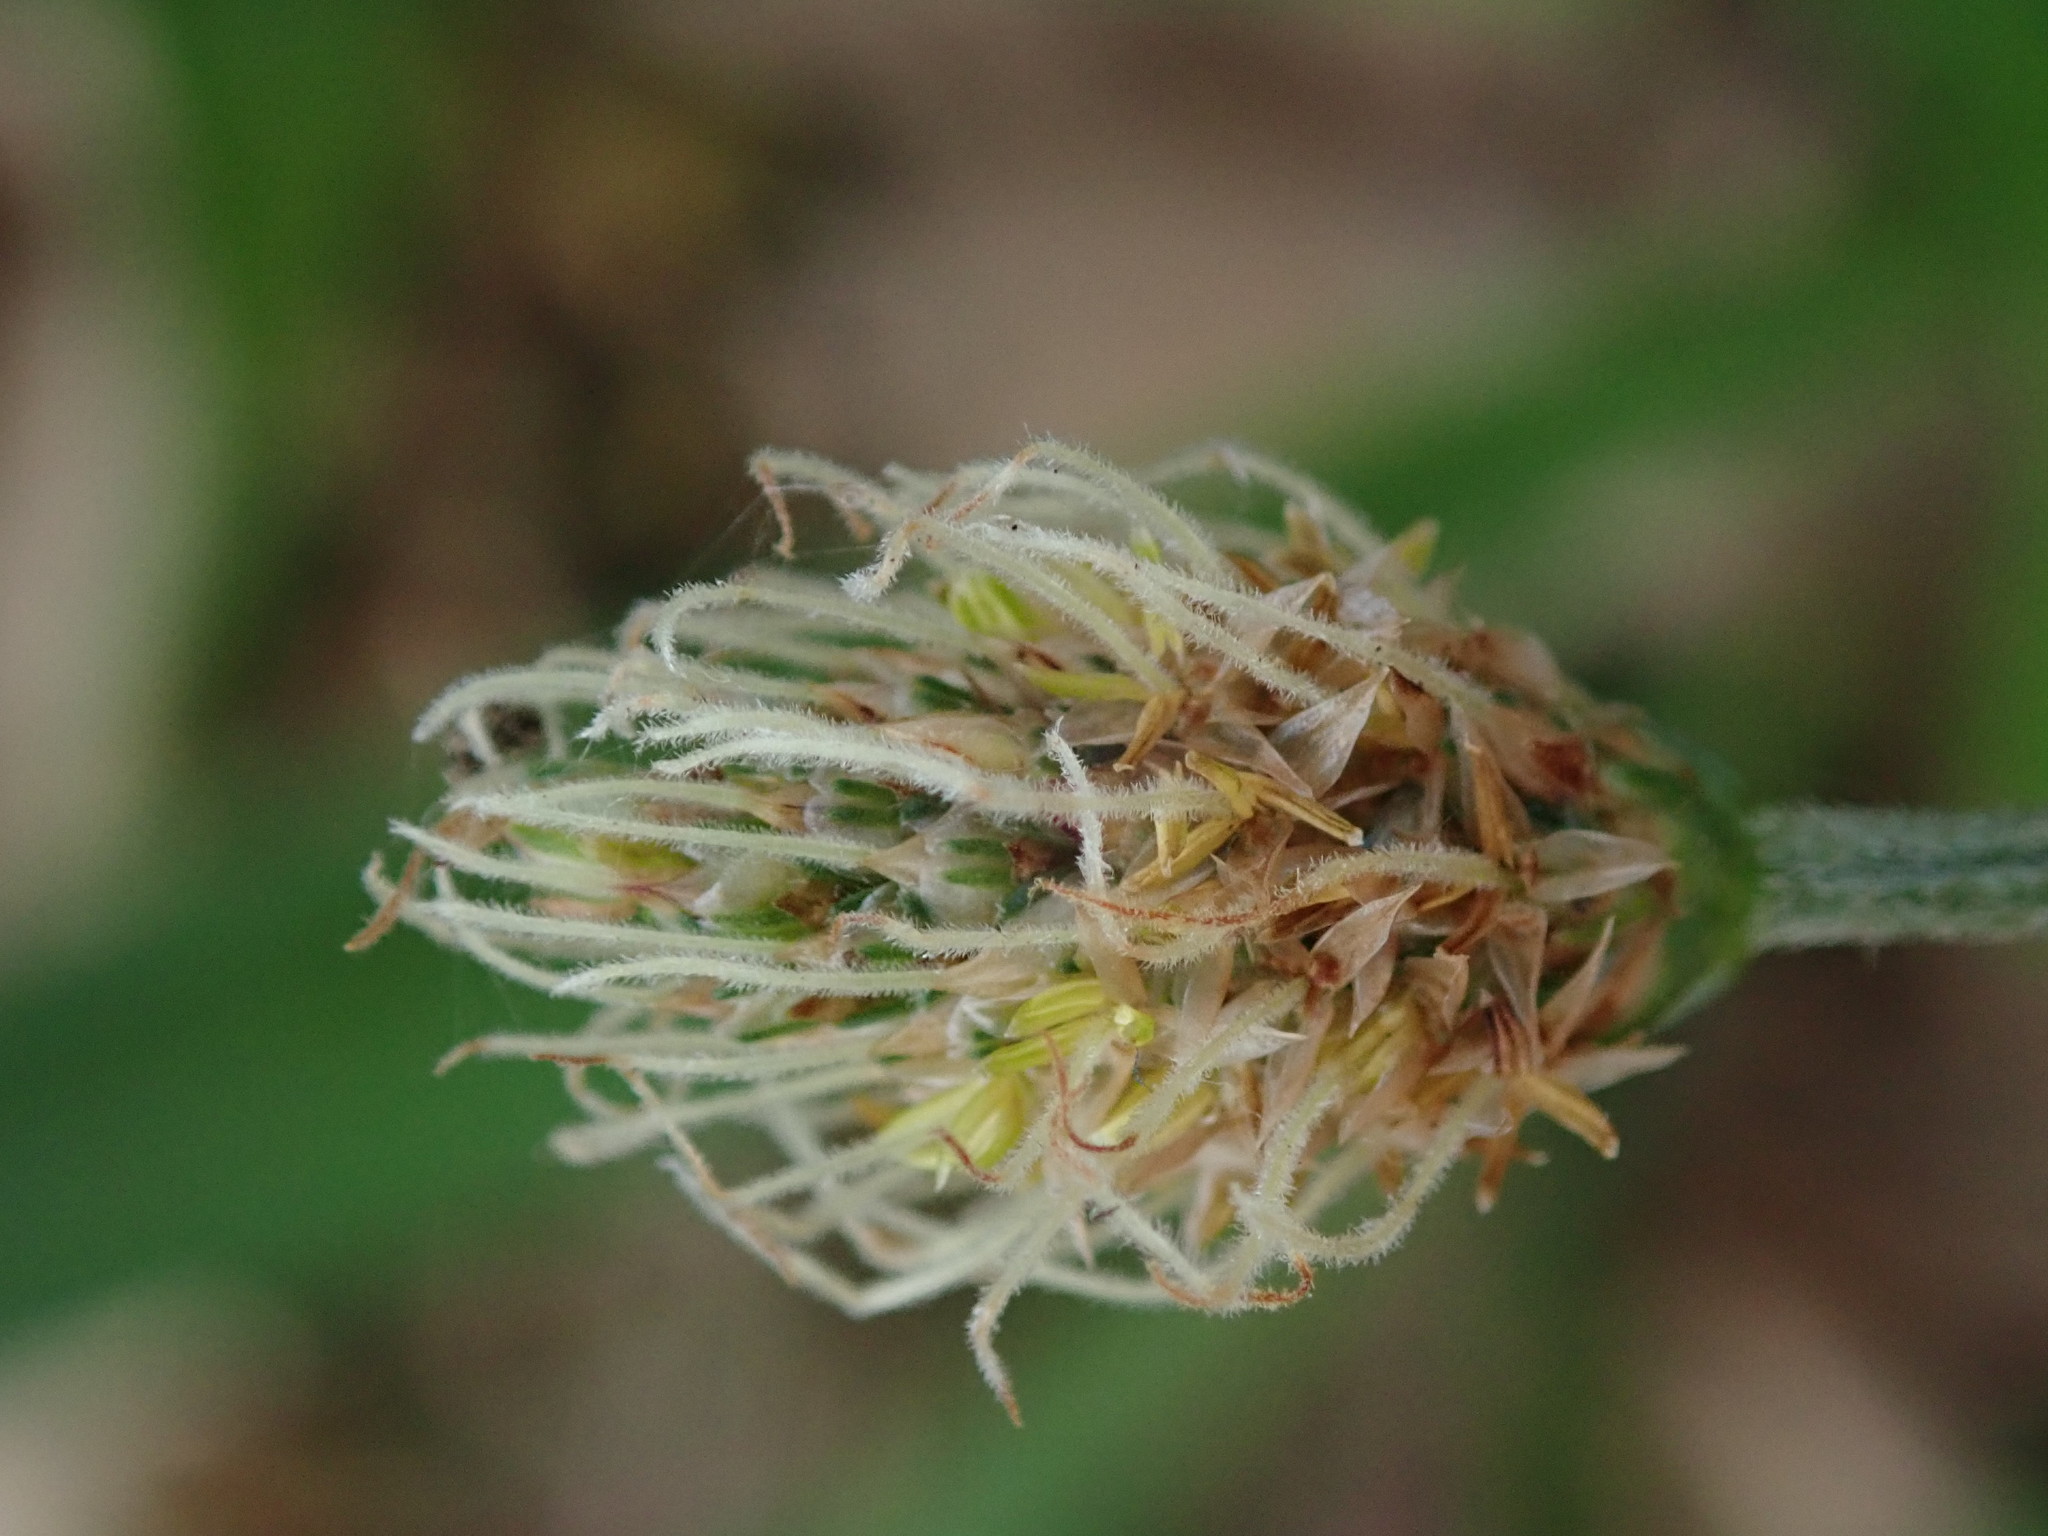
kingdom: Plantae
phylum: Tracheophyta
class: Magnoliopsida
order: Lamiales
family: Plantaginaceae
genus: Plantago
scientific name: Plantago lanceolata
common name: Ribwort plantain
